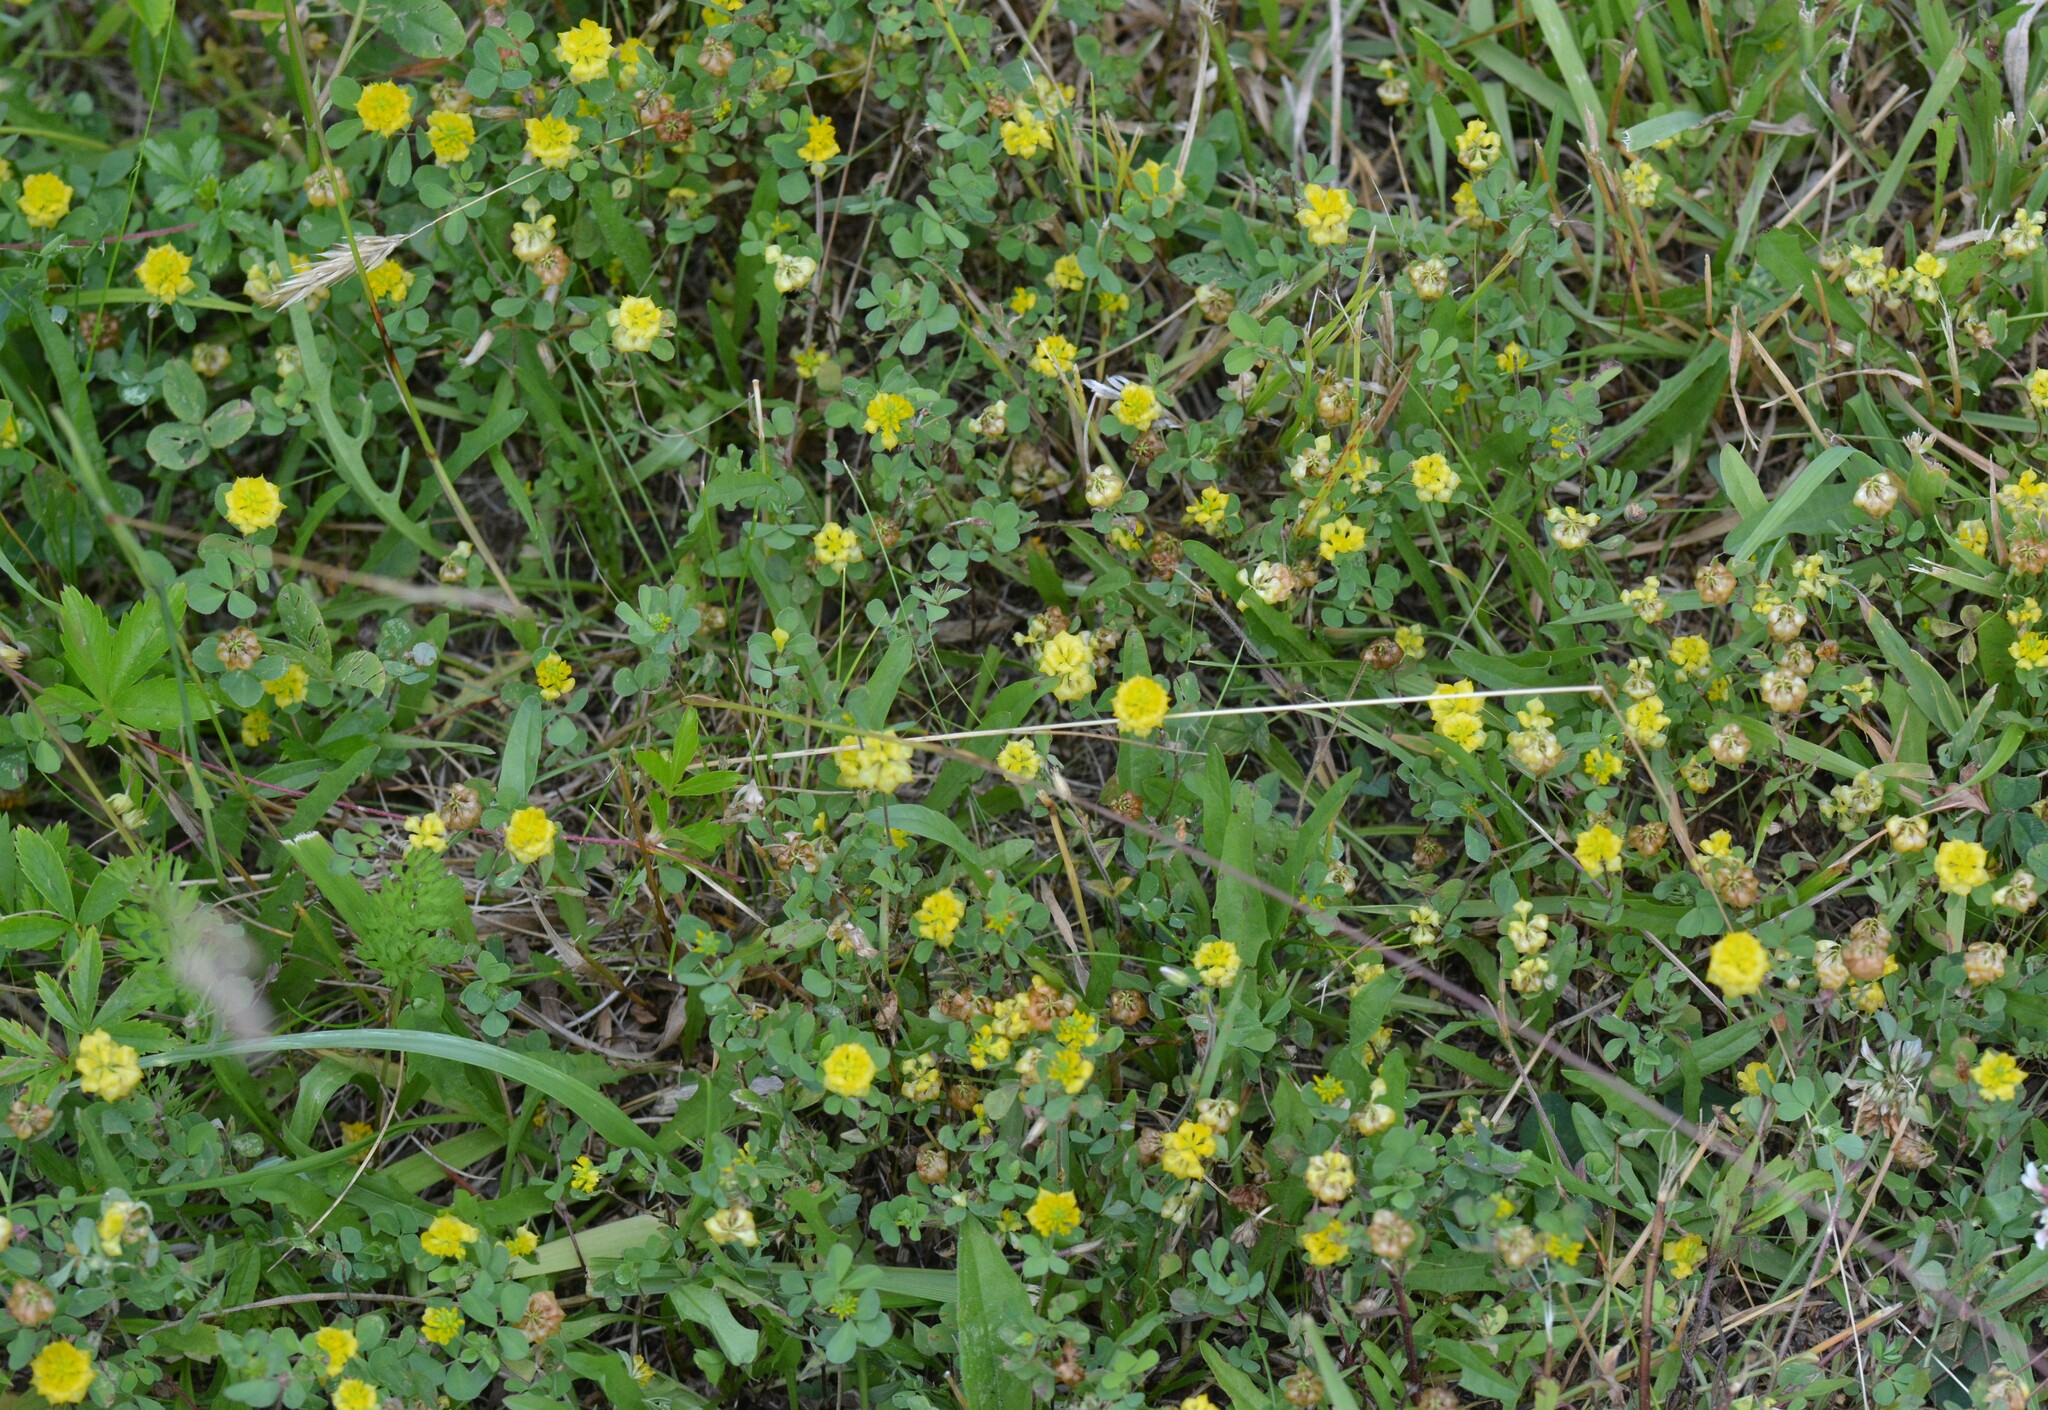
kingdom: Plantae
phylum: Tracheophyta
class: Magnoliopsida
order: Fabales
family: Fabaceae
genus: Trifolium
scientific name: Trifolium campestre
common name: Field clover
